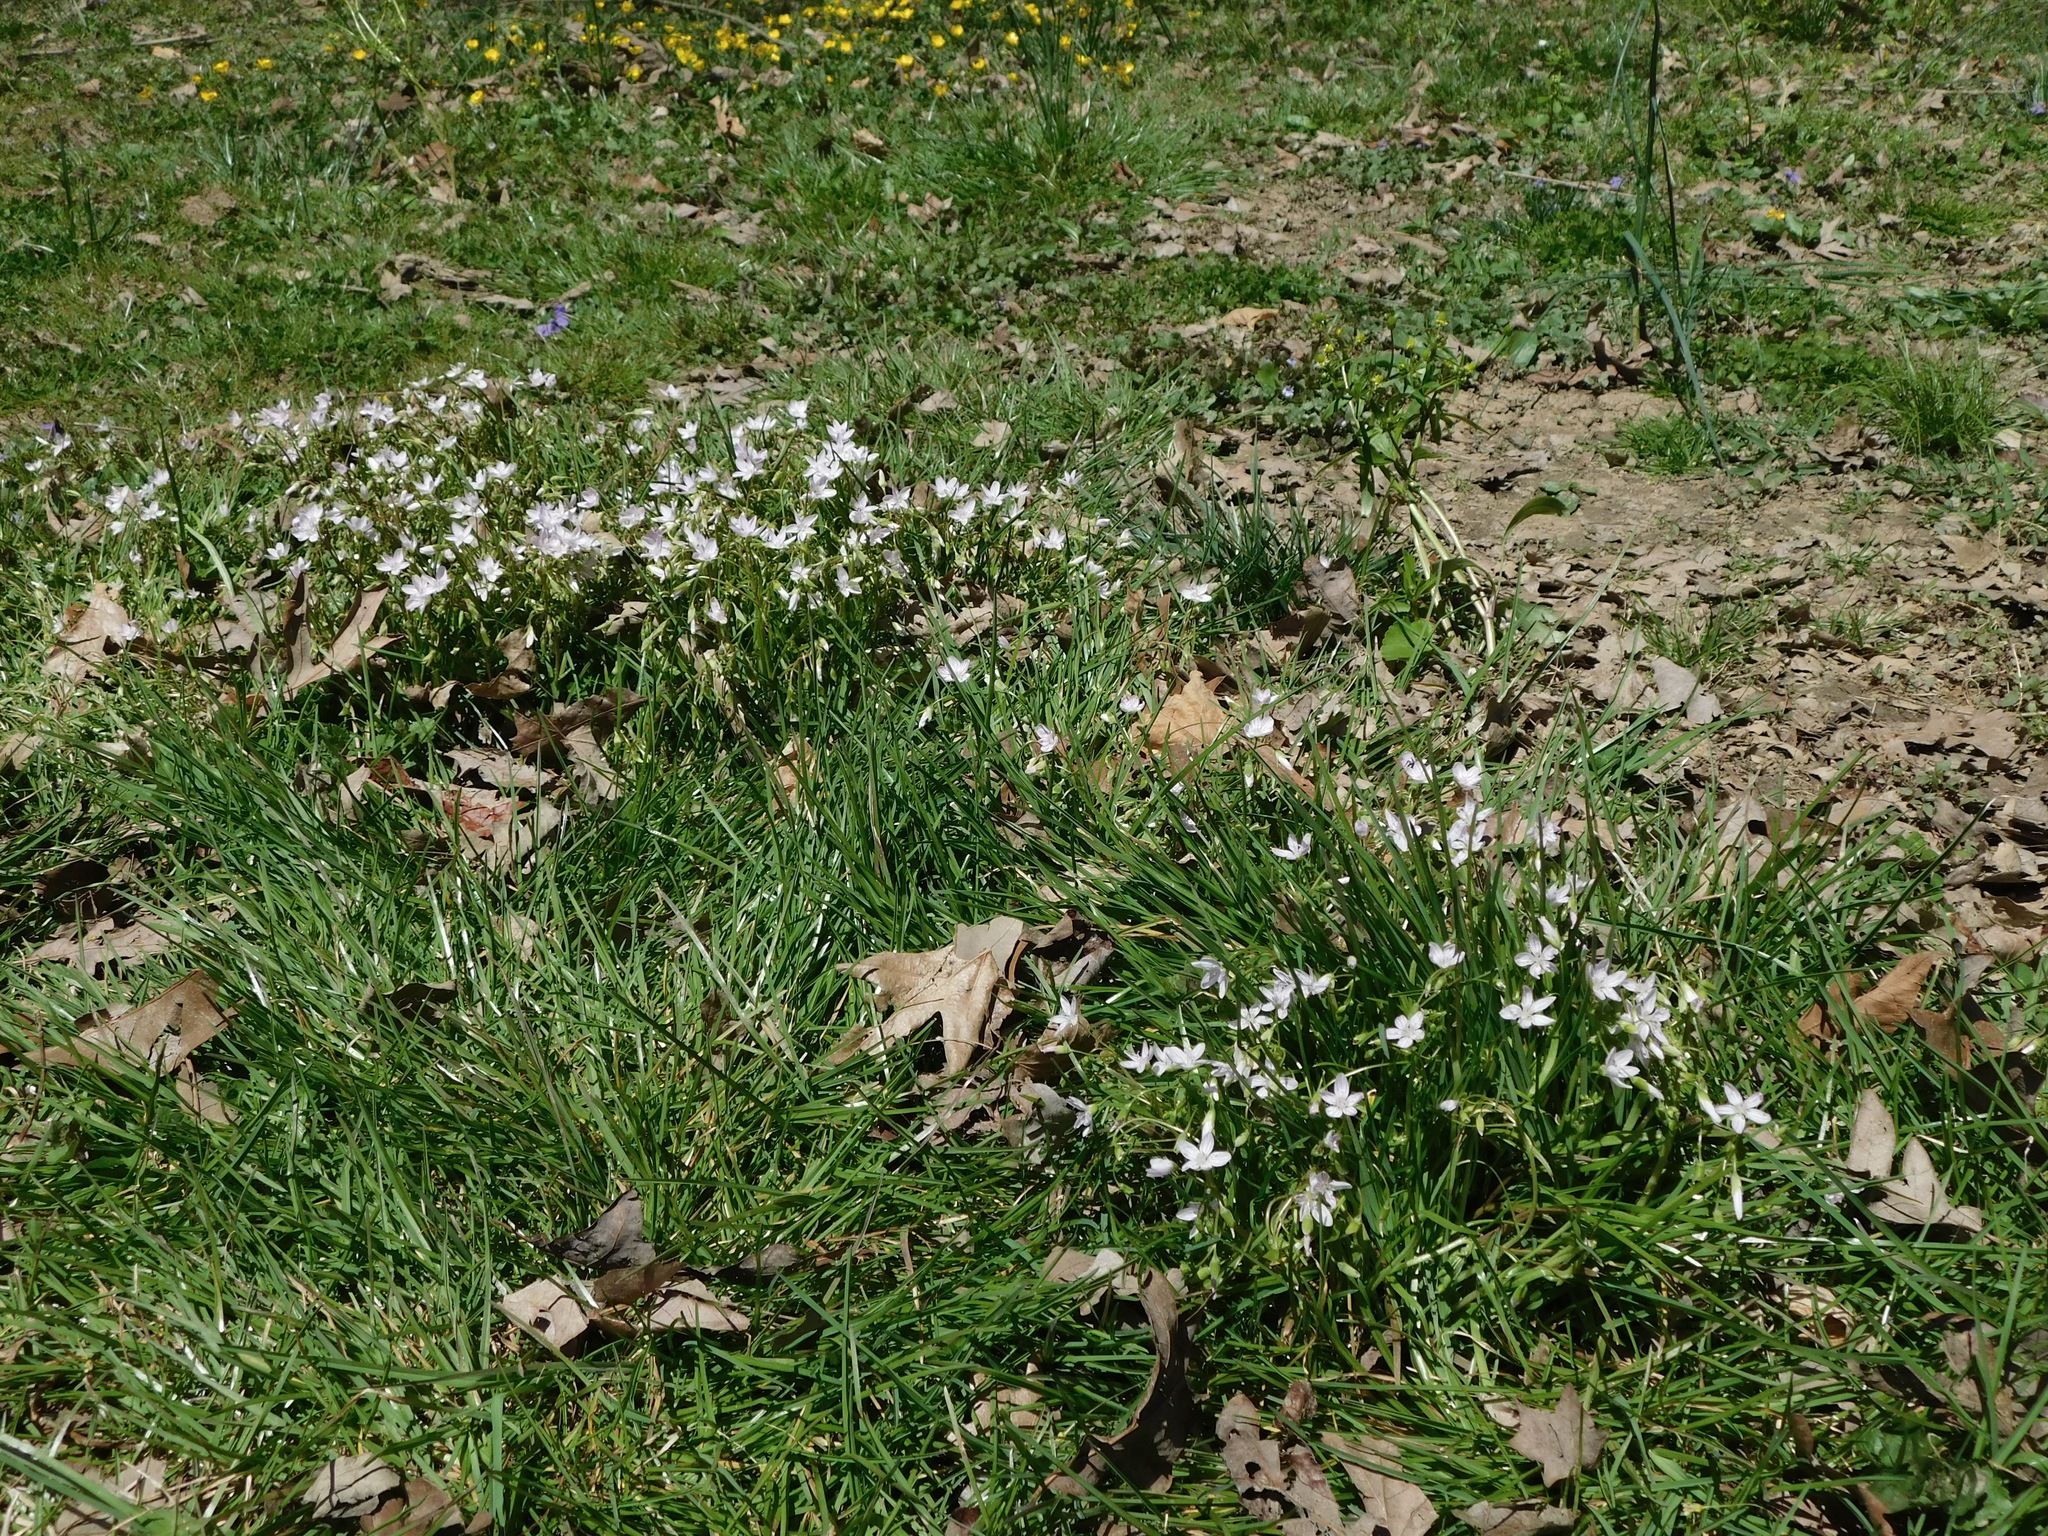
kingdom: Plantae
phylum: Tracheophyta
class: Magnoliopsida
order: Caryophyllales
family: Montiaceae
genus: Claytonia
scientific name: Claytonia virginica
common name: Virginia springbeauty
